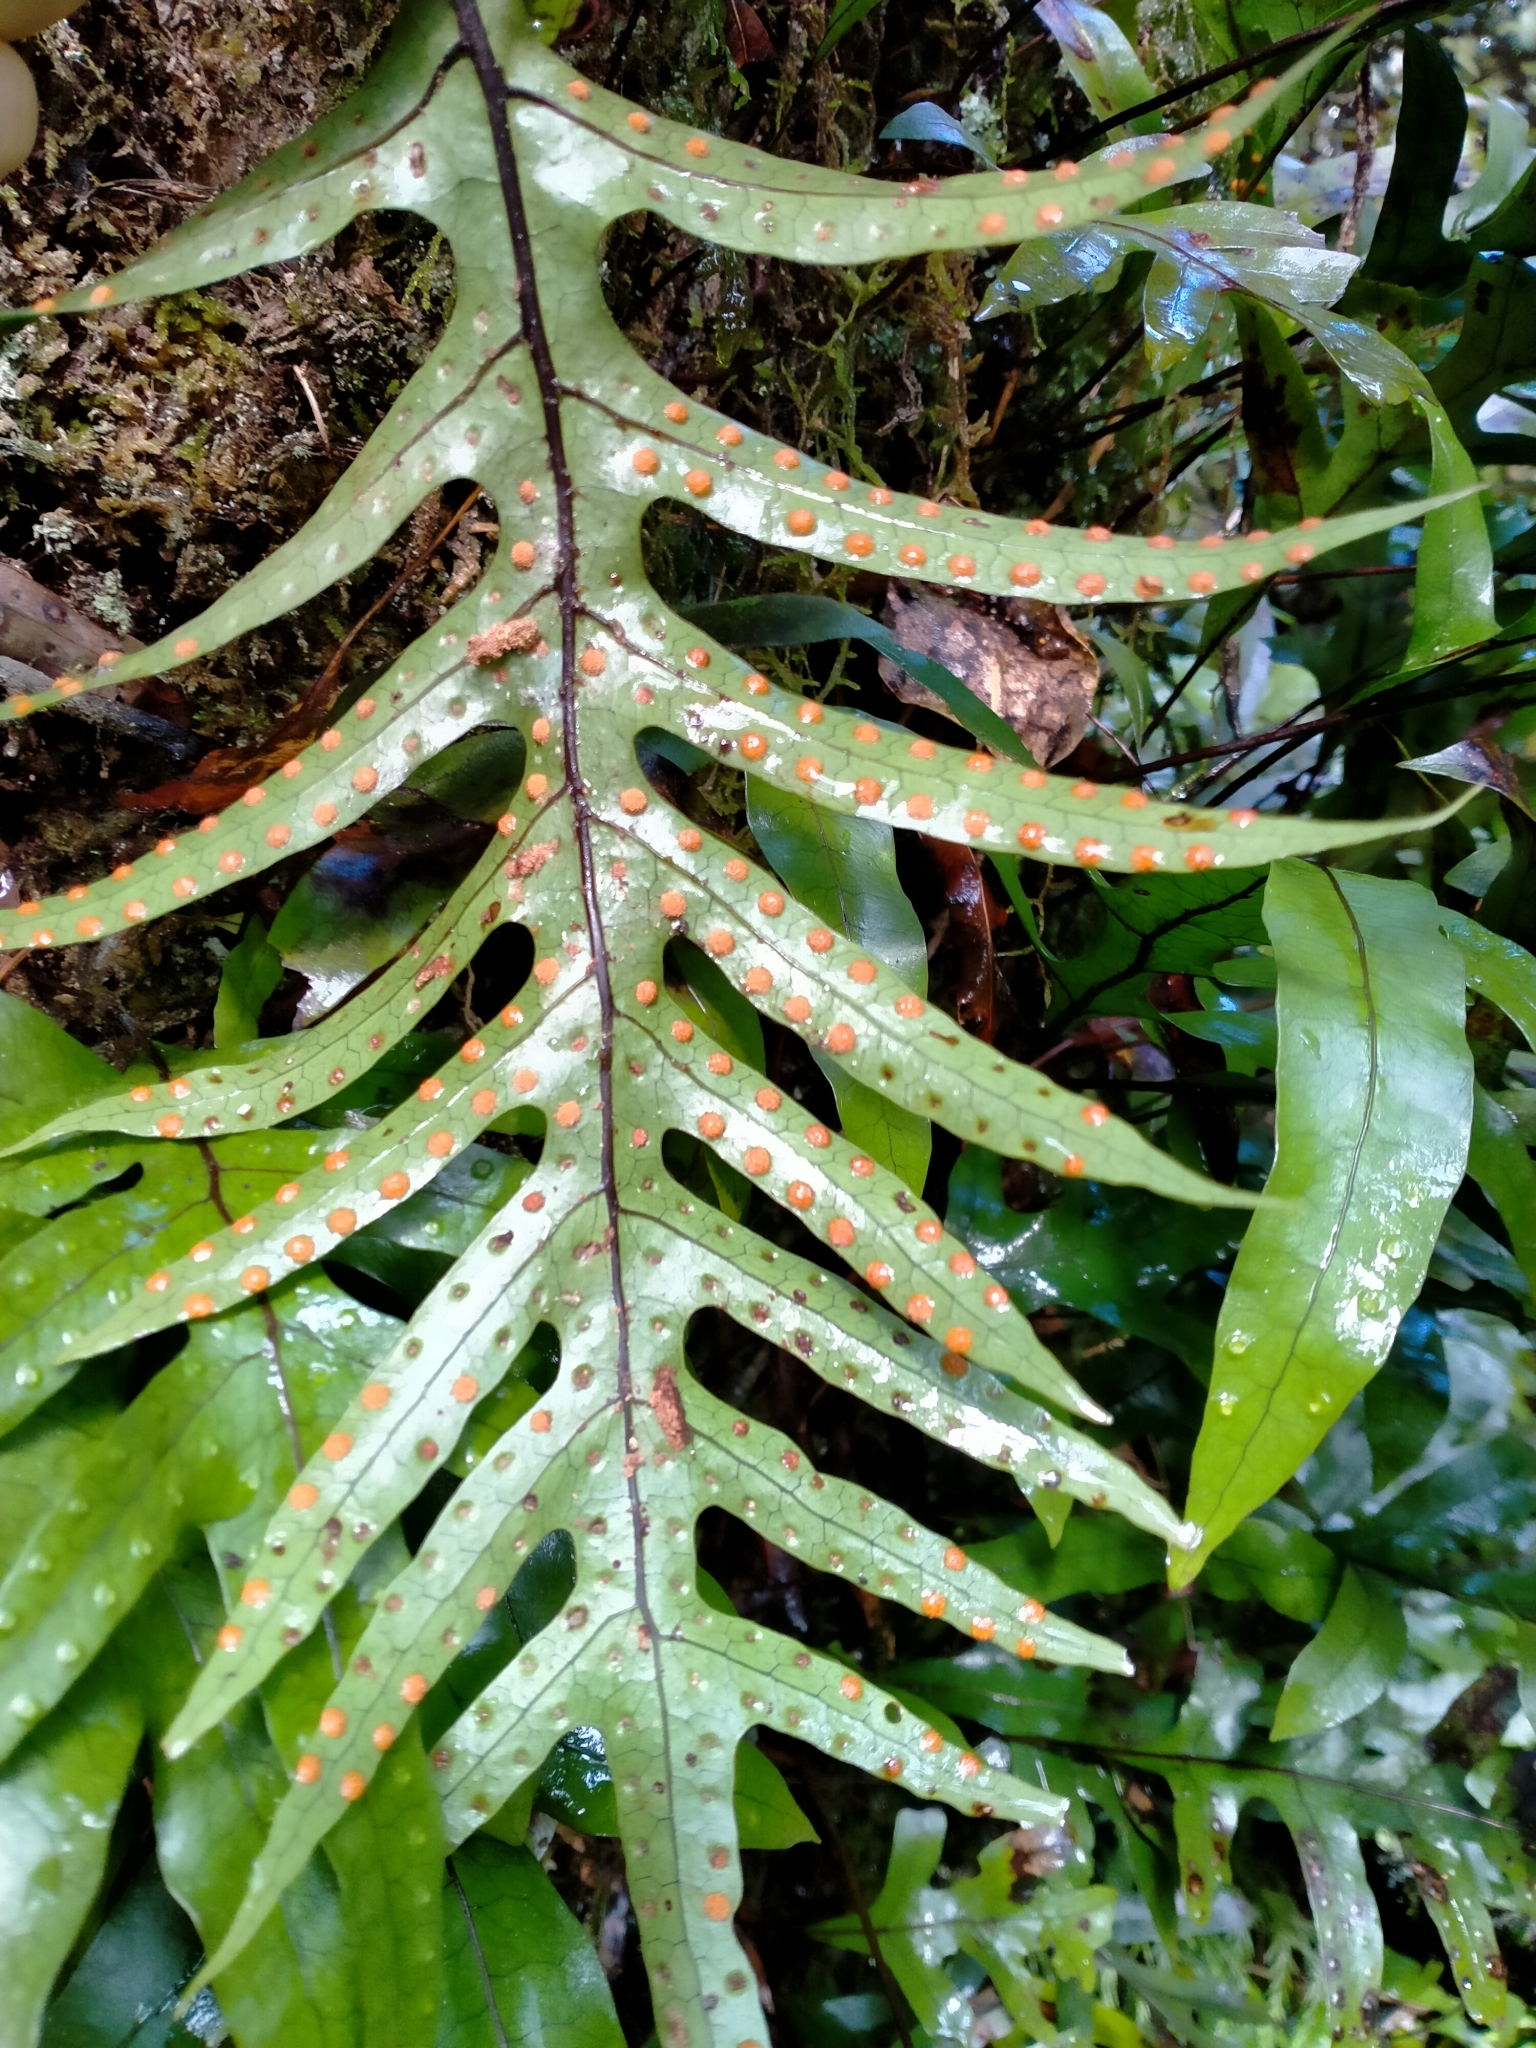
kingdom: Plantae
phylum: Tracheophyta
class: Polypodiopsida
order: Polypodiales
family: Polypodiaceae
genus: Lecanopteris
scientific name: Lecanopteris pustulata
